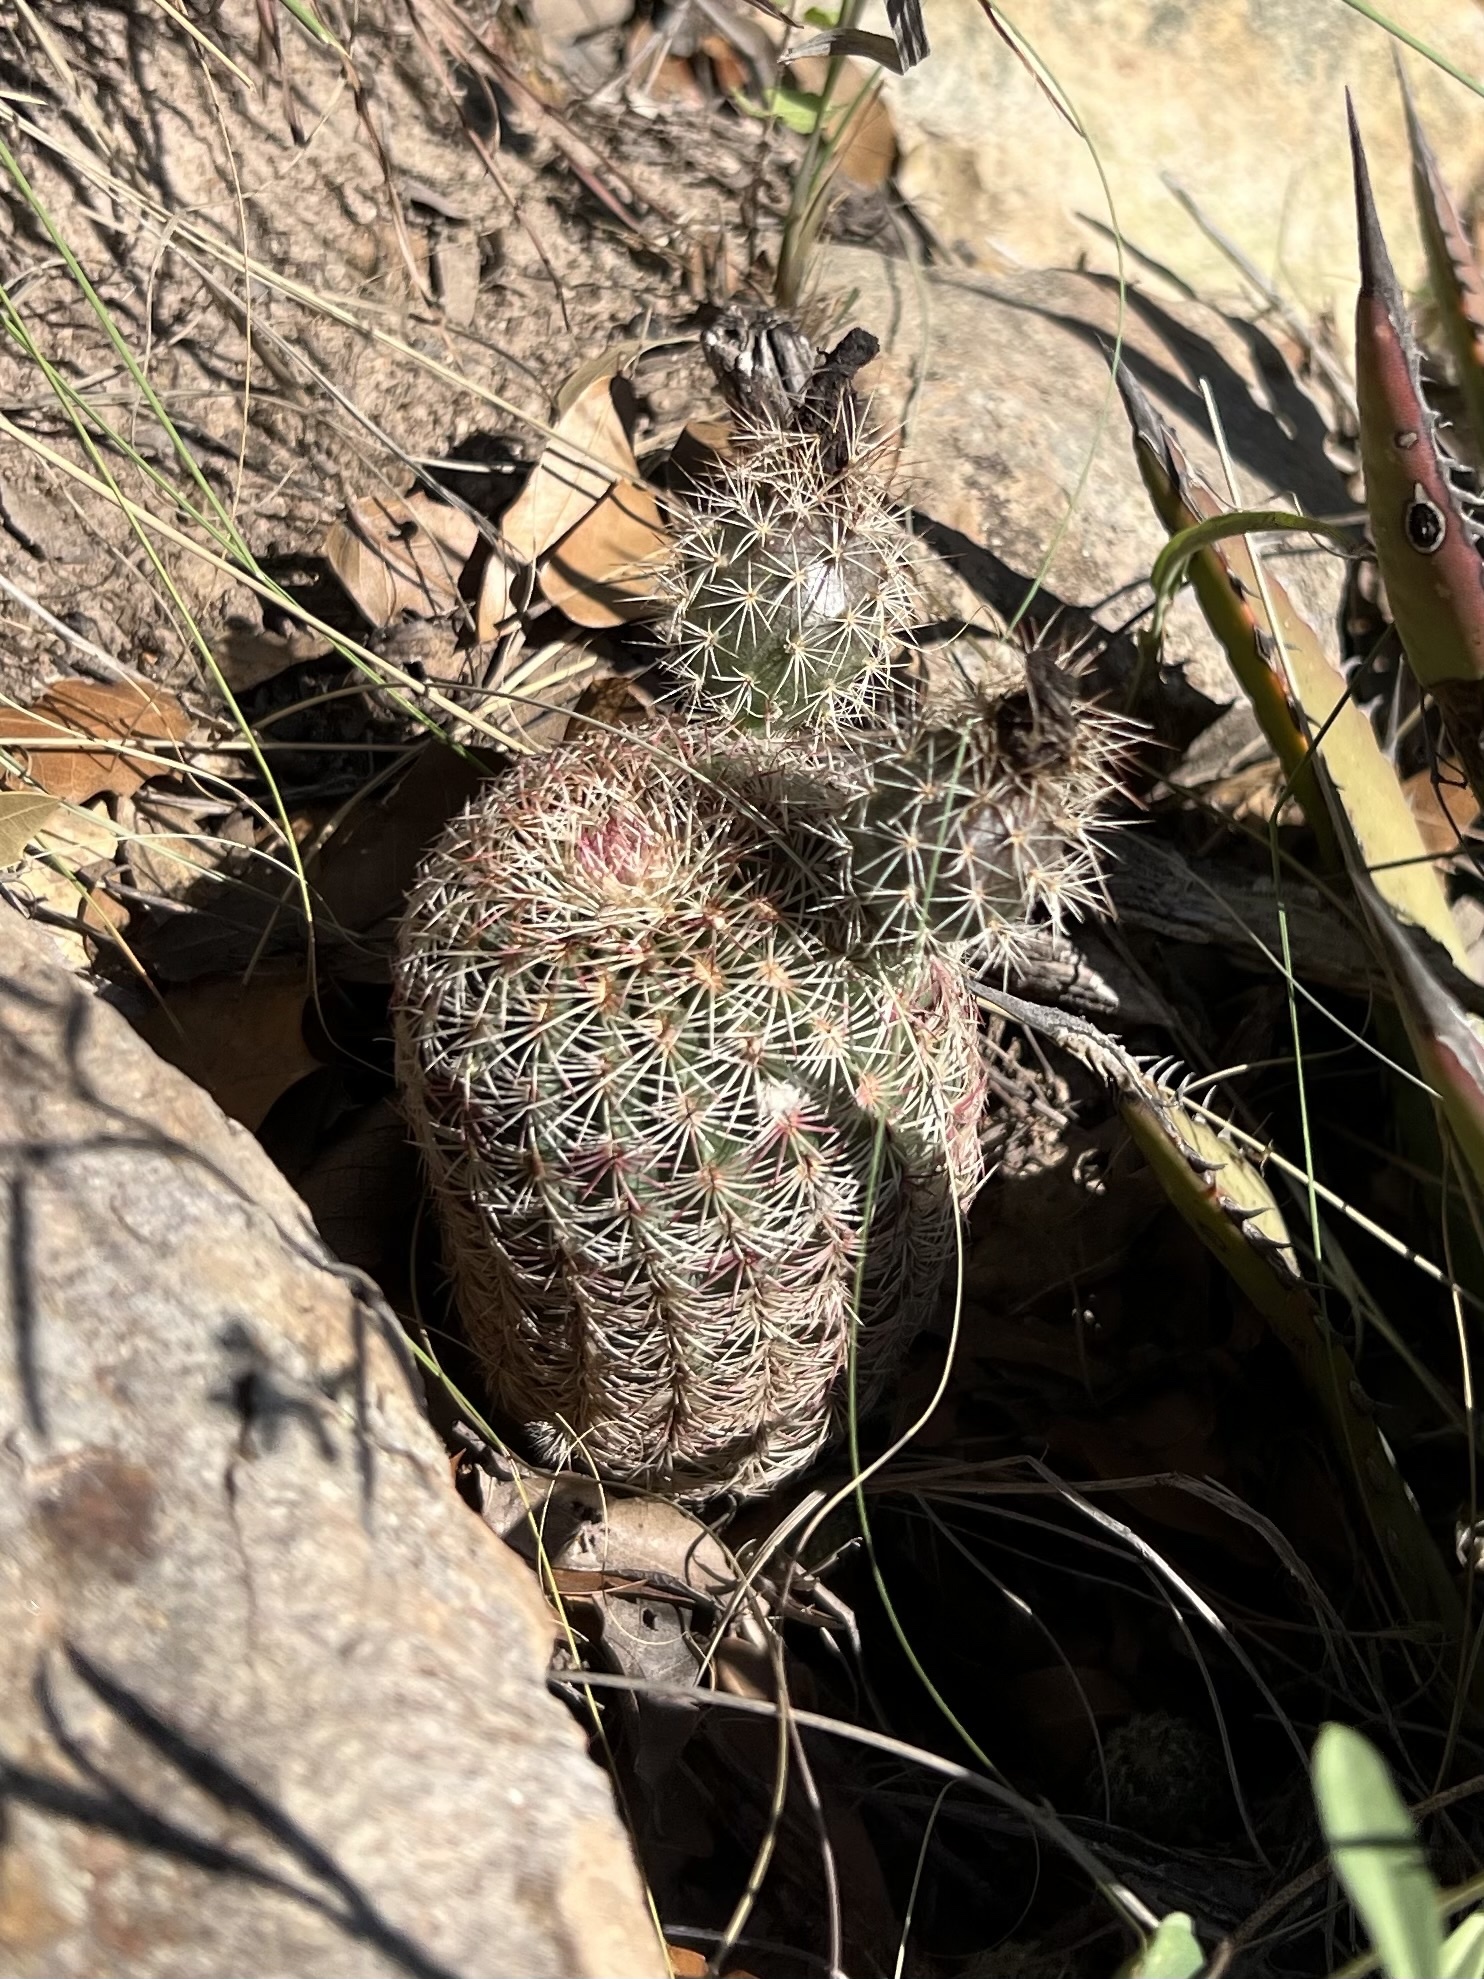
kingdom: Plantae
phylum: Tracheophyta
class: Magnoliopsida
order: Caryophyllales
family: Cactaceae
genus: Echinocereus
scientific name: Echinocereus rigidissimus
